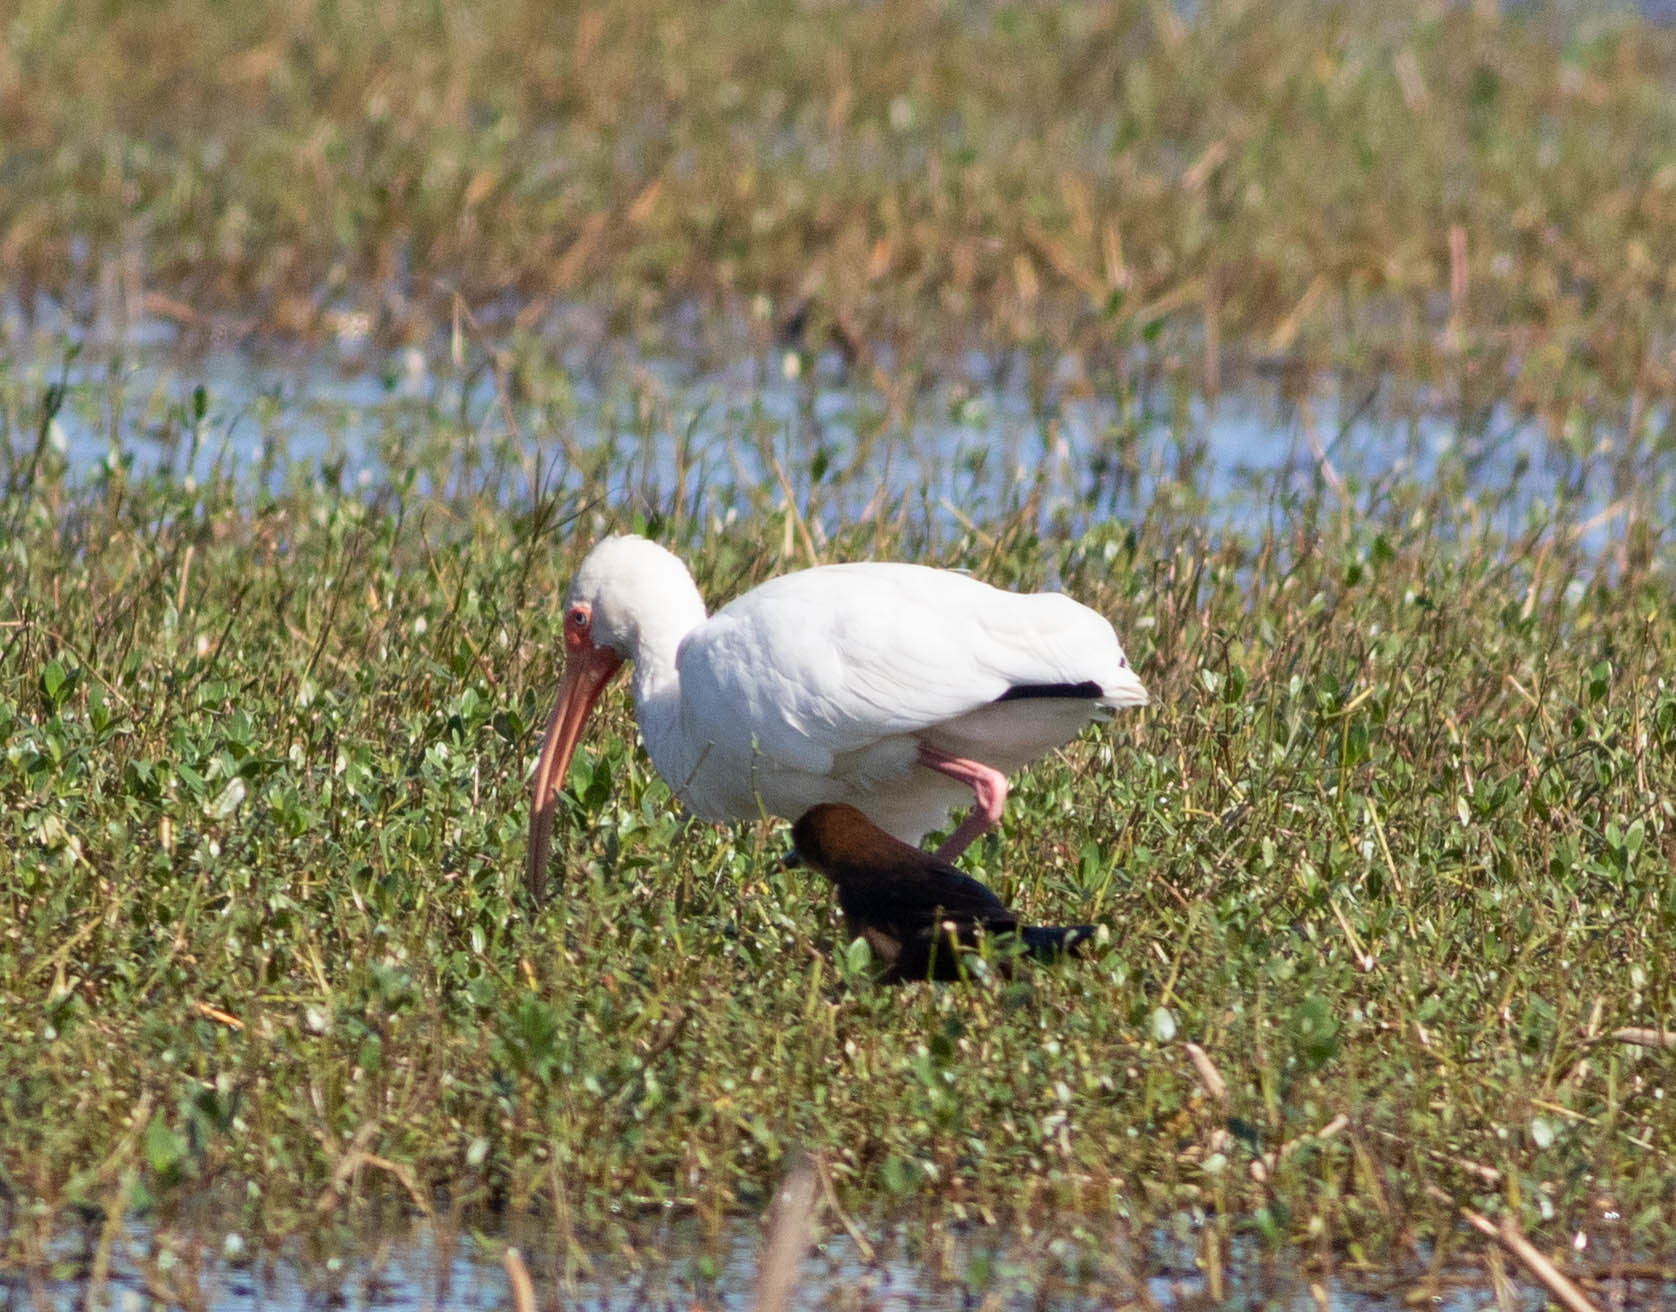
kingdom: Animalia
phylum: Chordata
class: Aves
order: Pelecaniformes
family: Threskiornithidae
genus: Eudocimus
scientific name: Eudocimus albus
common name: White ibis
